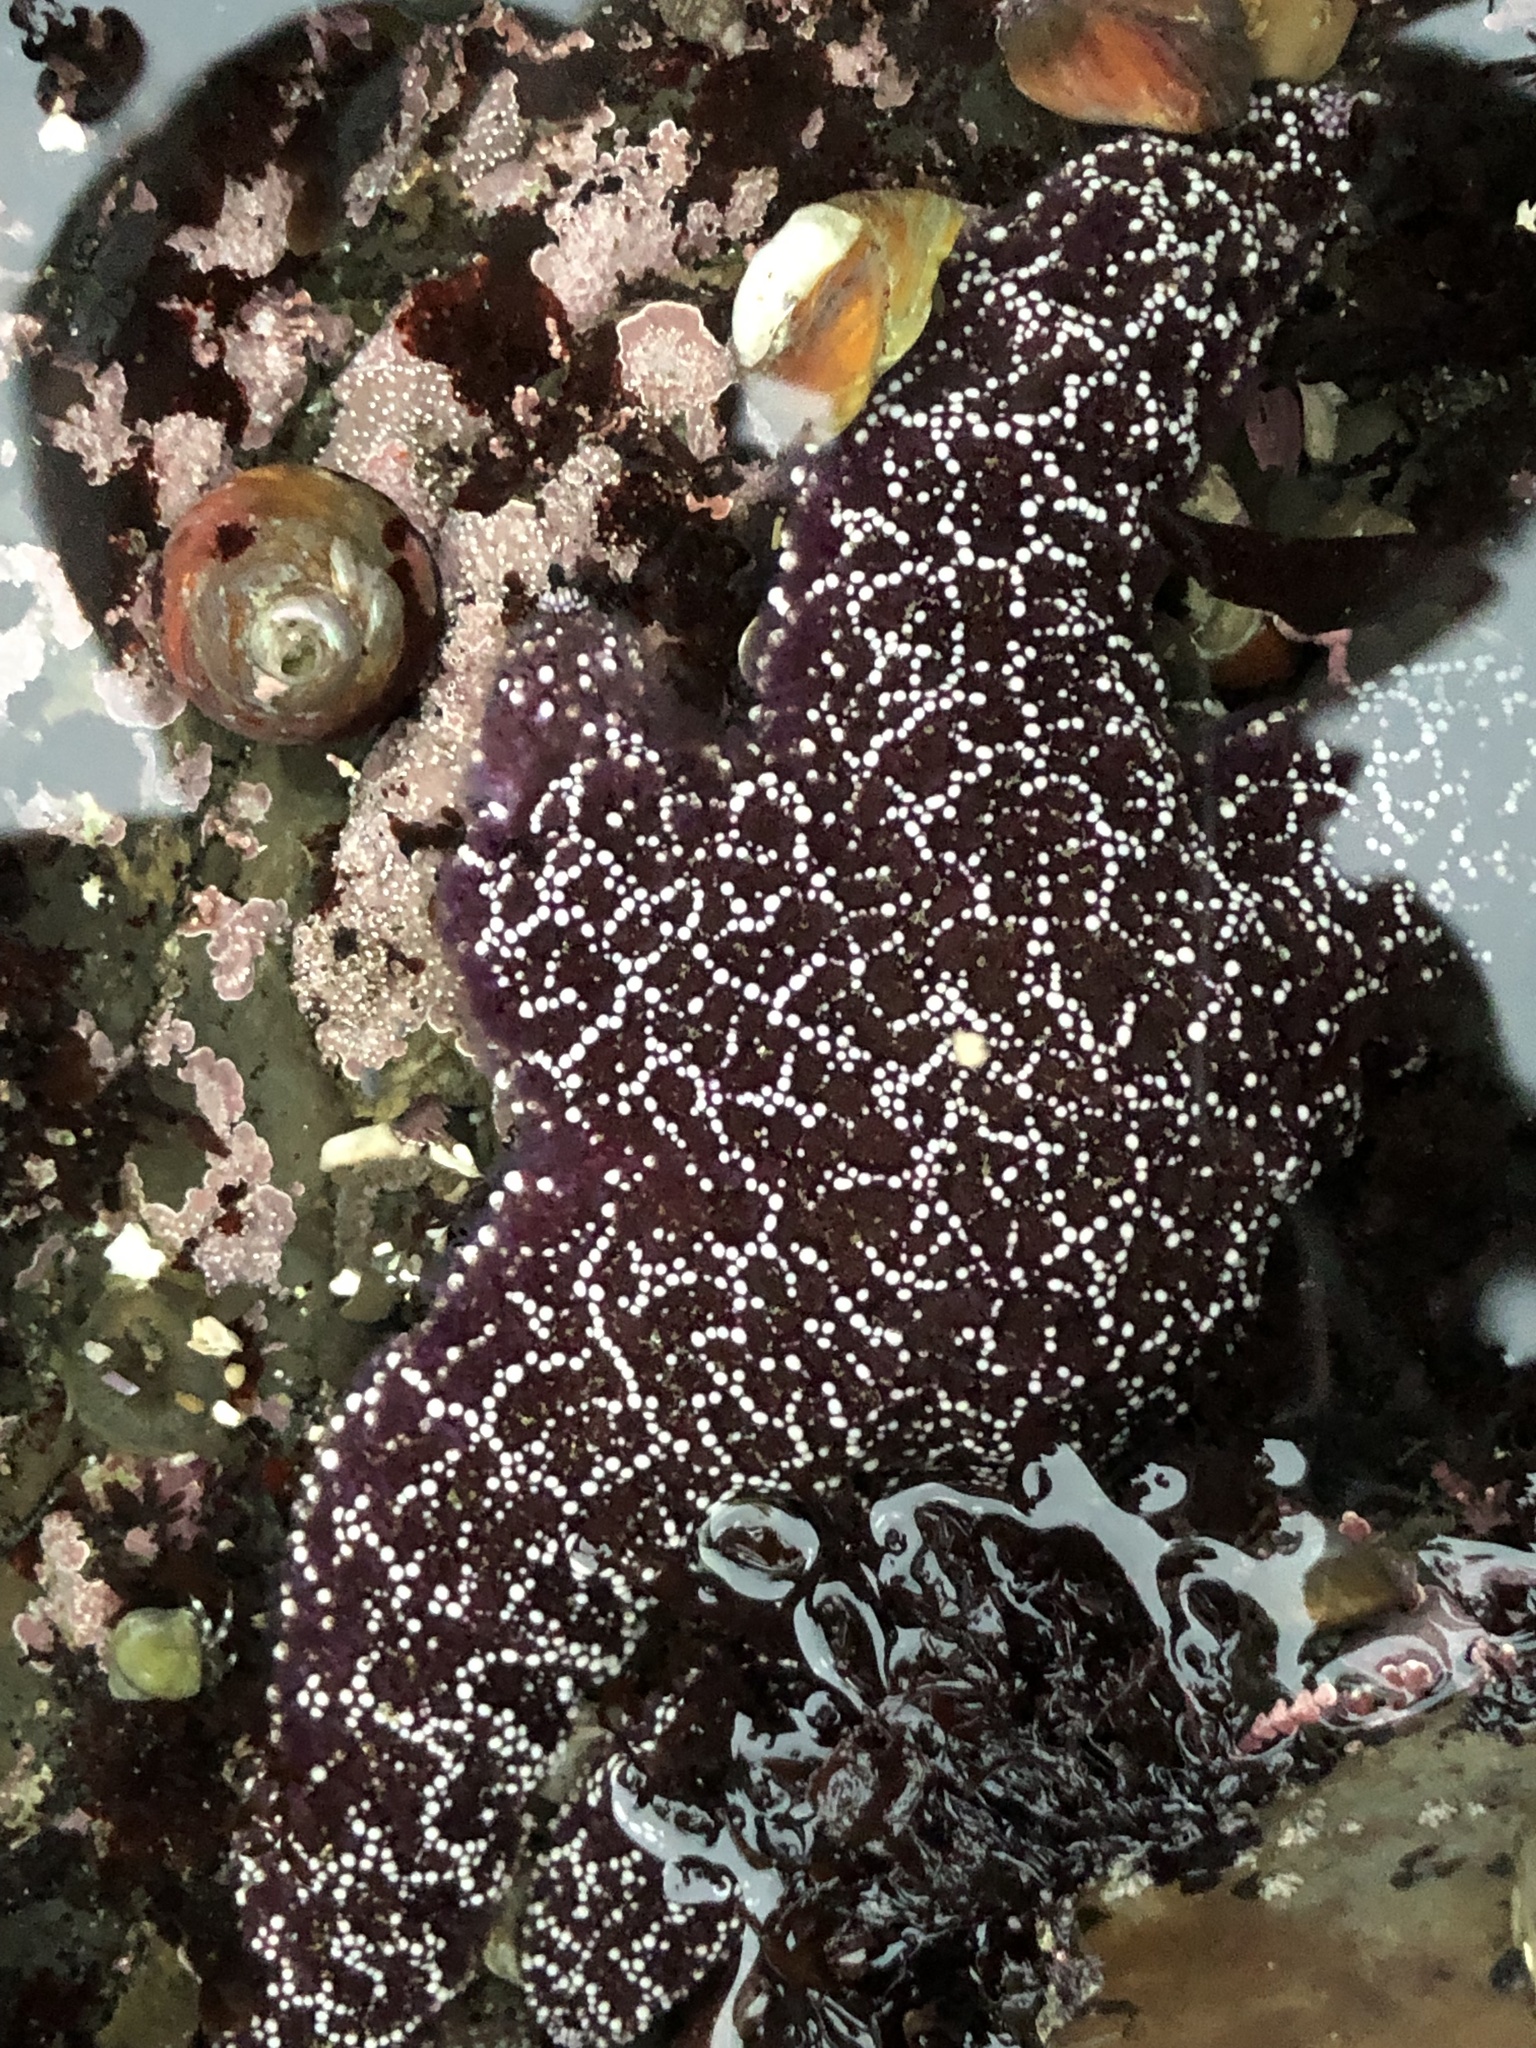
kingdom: Animalia
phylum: Echinodermata
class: Asteroidea
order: Forcipulatida
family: Asteriidae
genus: Pisaster
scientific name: Pisaster ochraceus
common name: Ochre stars
